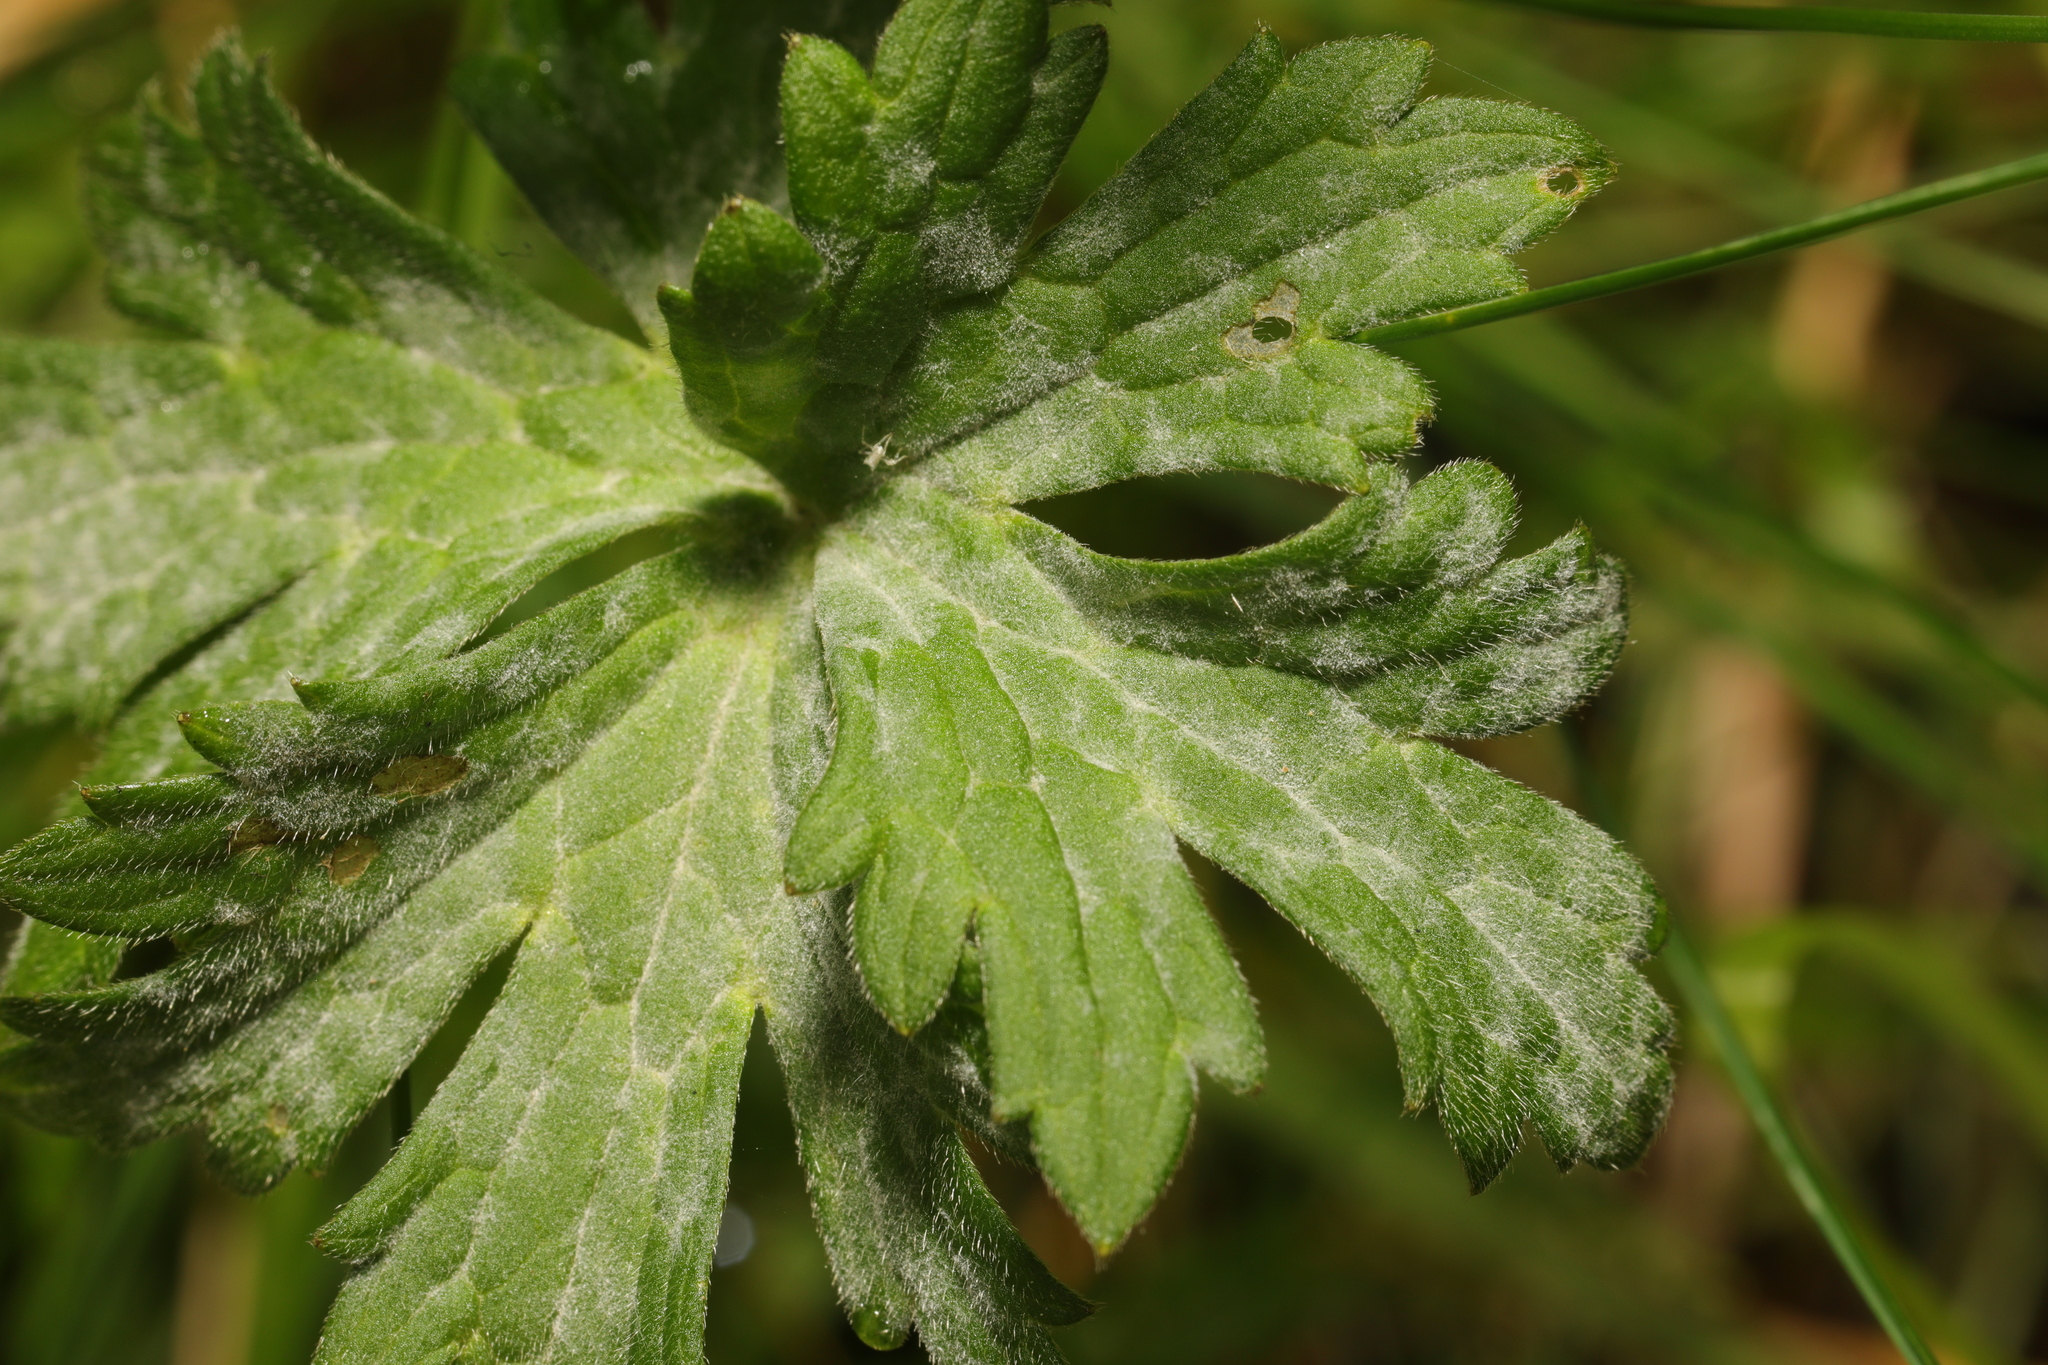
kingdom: Fungi
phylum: Ascomycota
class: Leotiomycetes
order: Helotiales
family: Erysiphaceae
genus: Erysiphe
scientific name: Erysiphe aquilegiae
